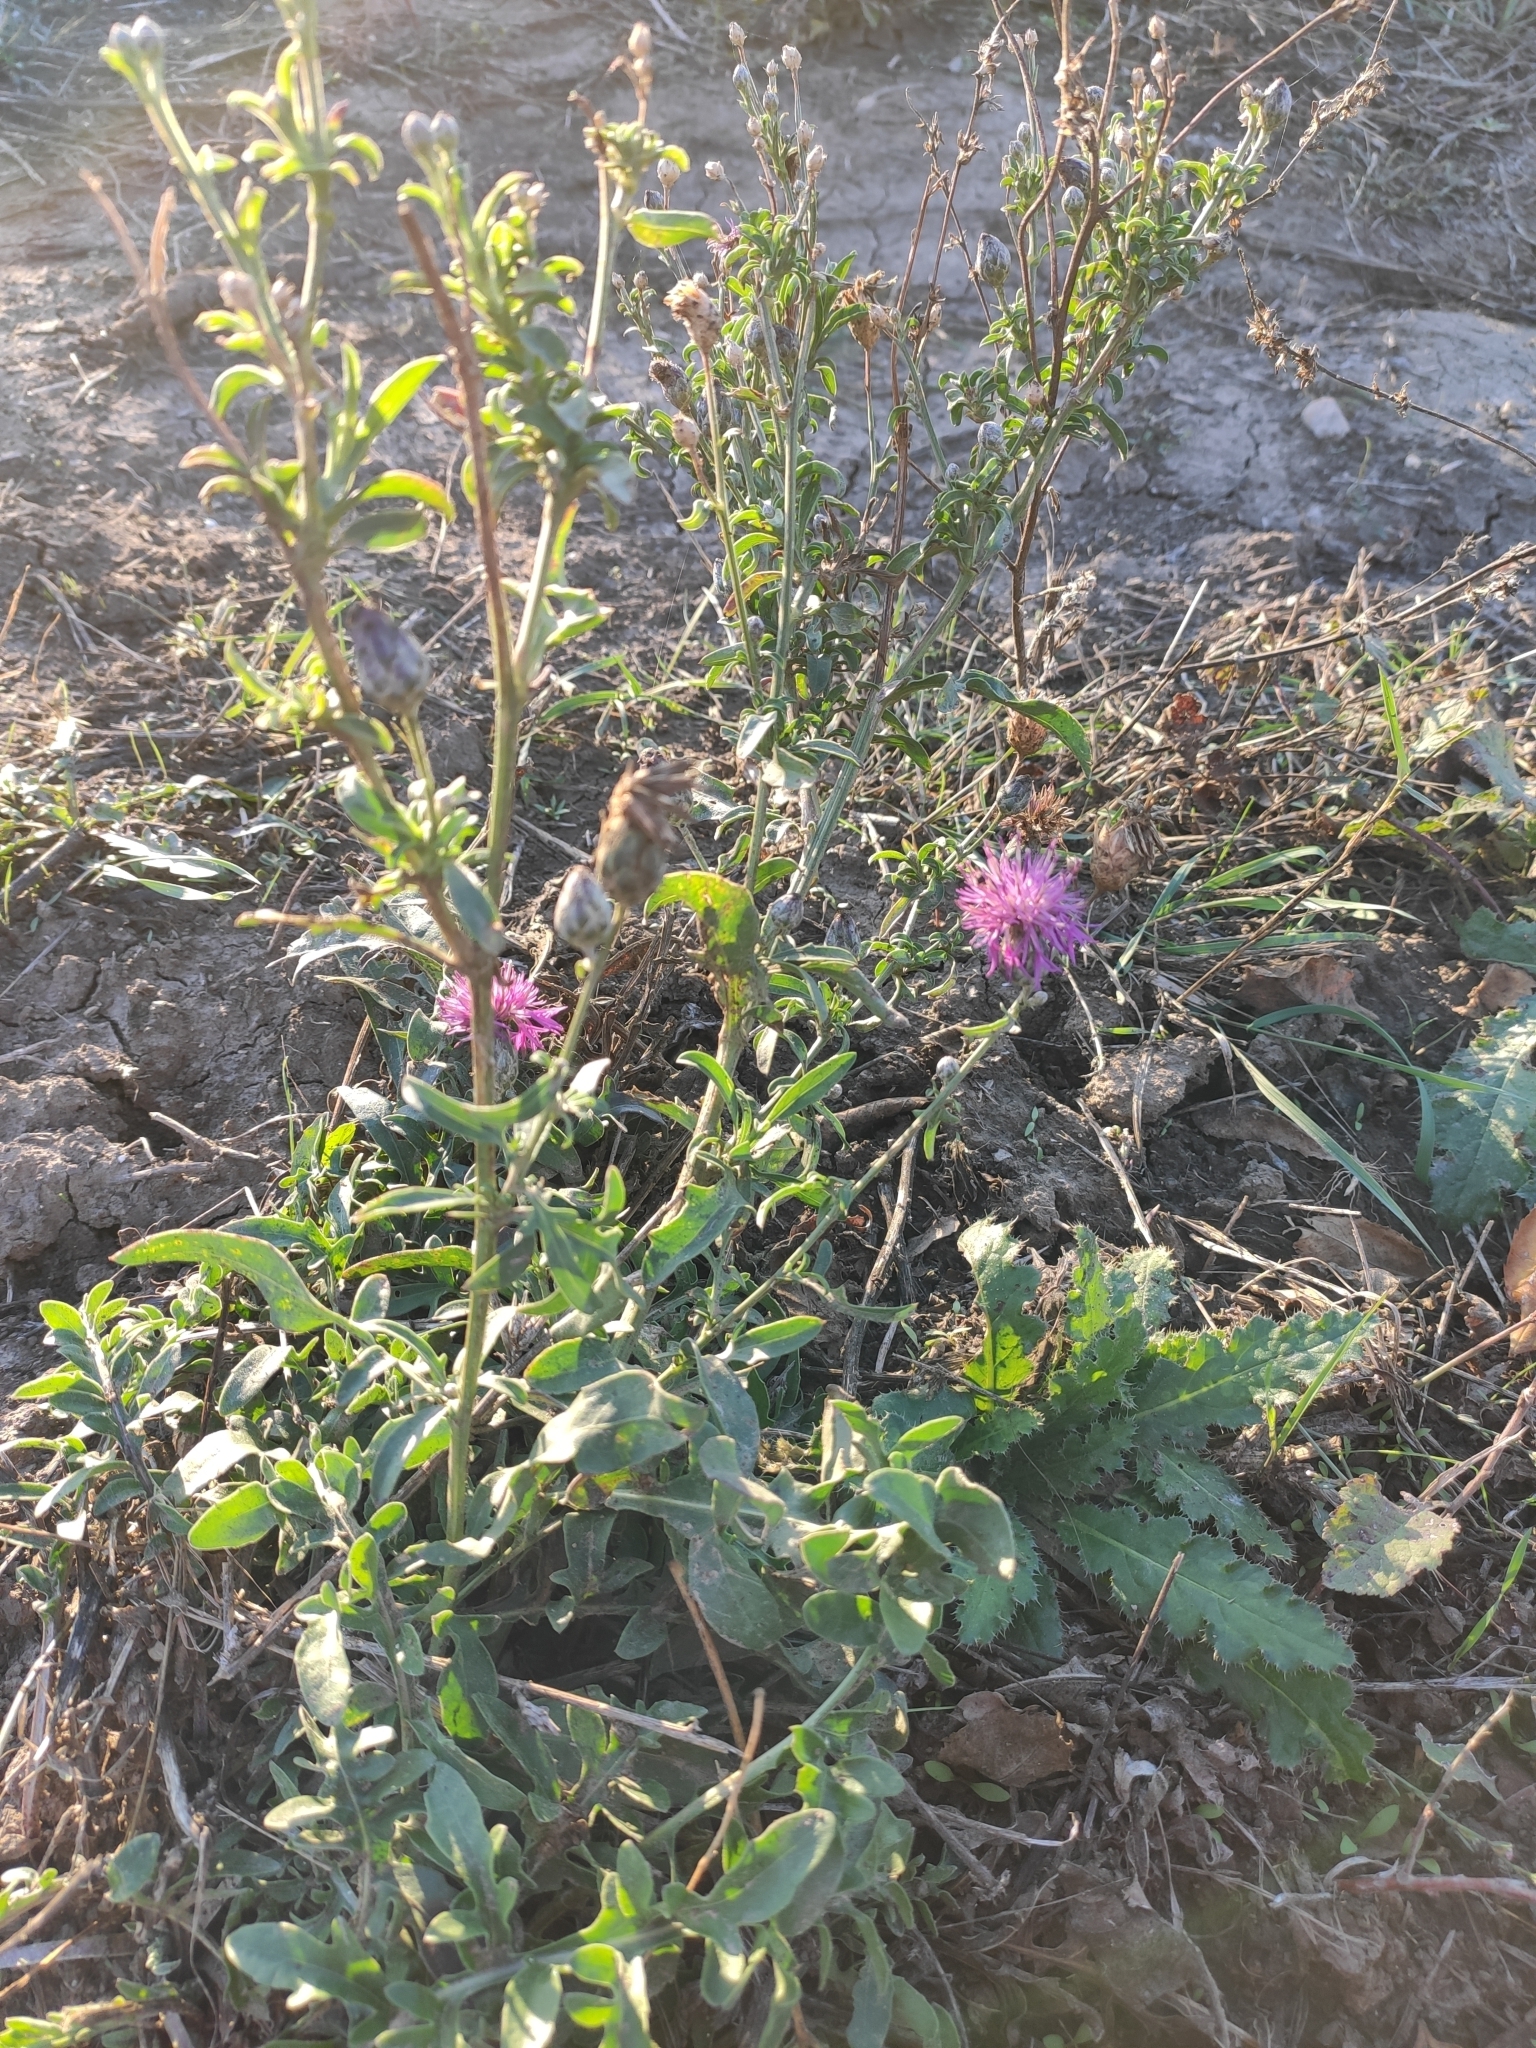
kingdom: Plantae
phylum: Tracheophyta
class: Magnoliopsida
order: Asterales
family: Asteraceae
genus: Leuzea
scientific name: Leuzea repens
